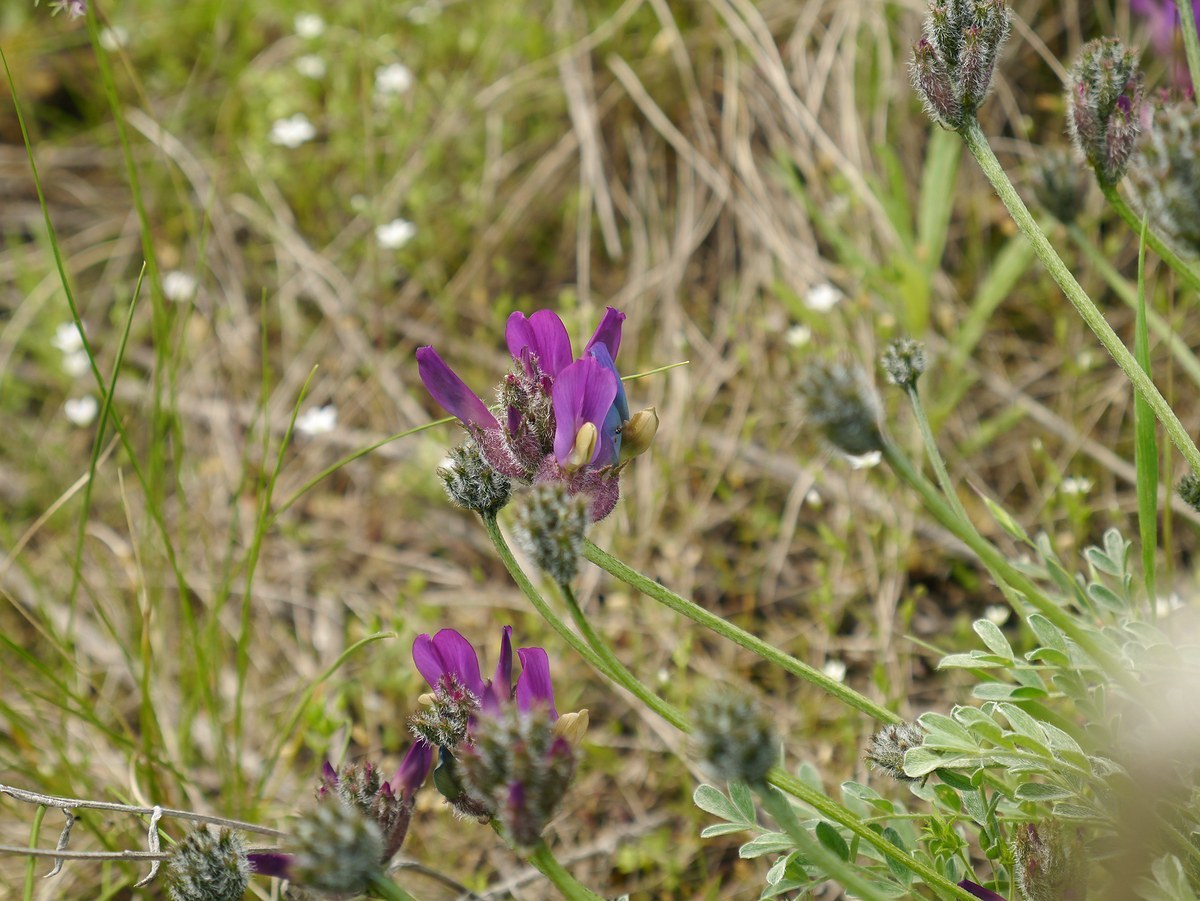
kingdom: Plantae
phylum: Tracheophyta
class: Magnoliopsida
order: Fabales
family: Fabaceae
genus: Astragalus
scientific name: Astragalus cornutus
